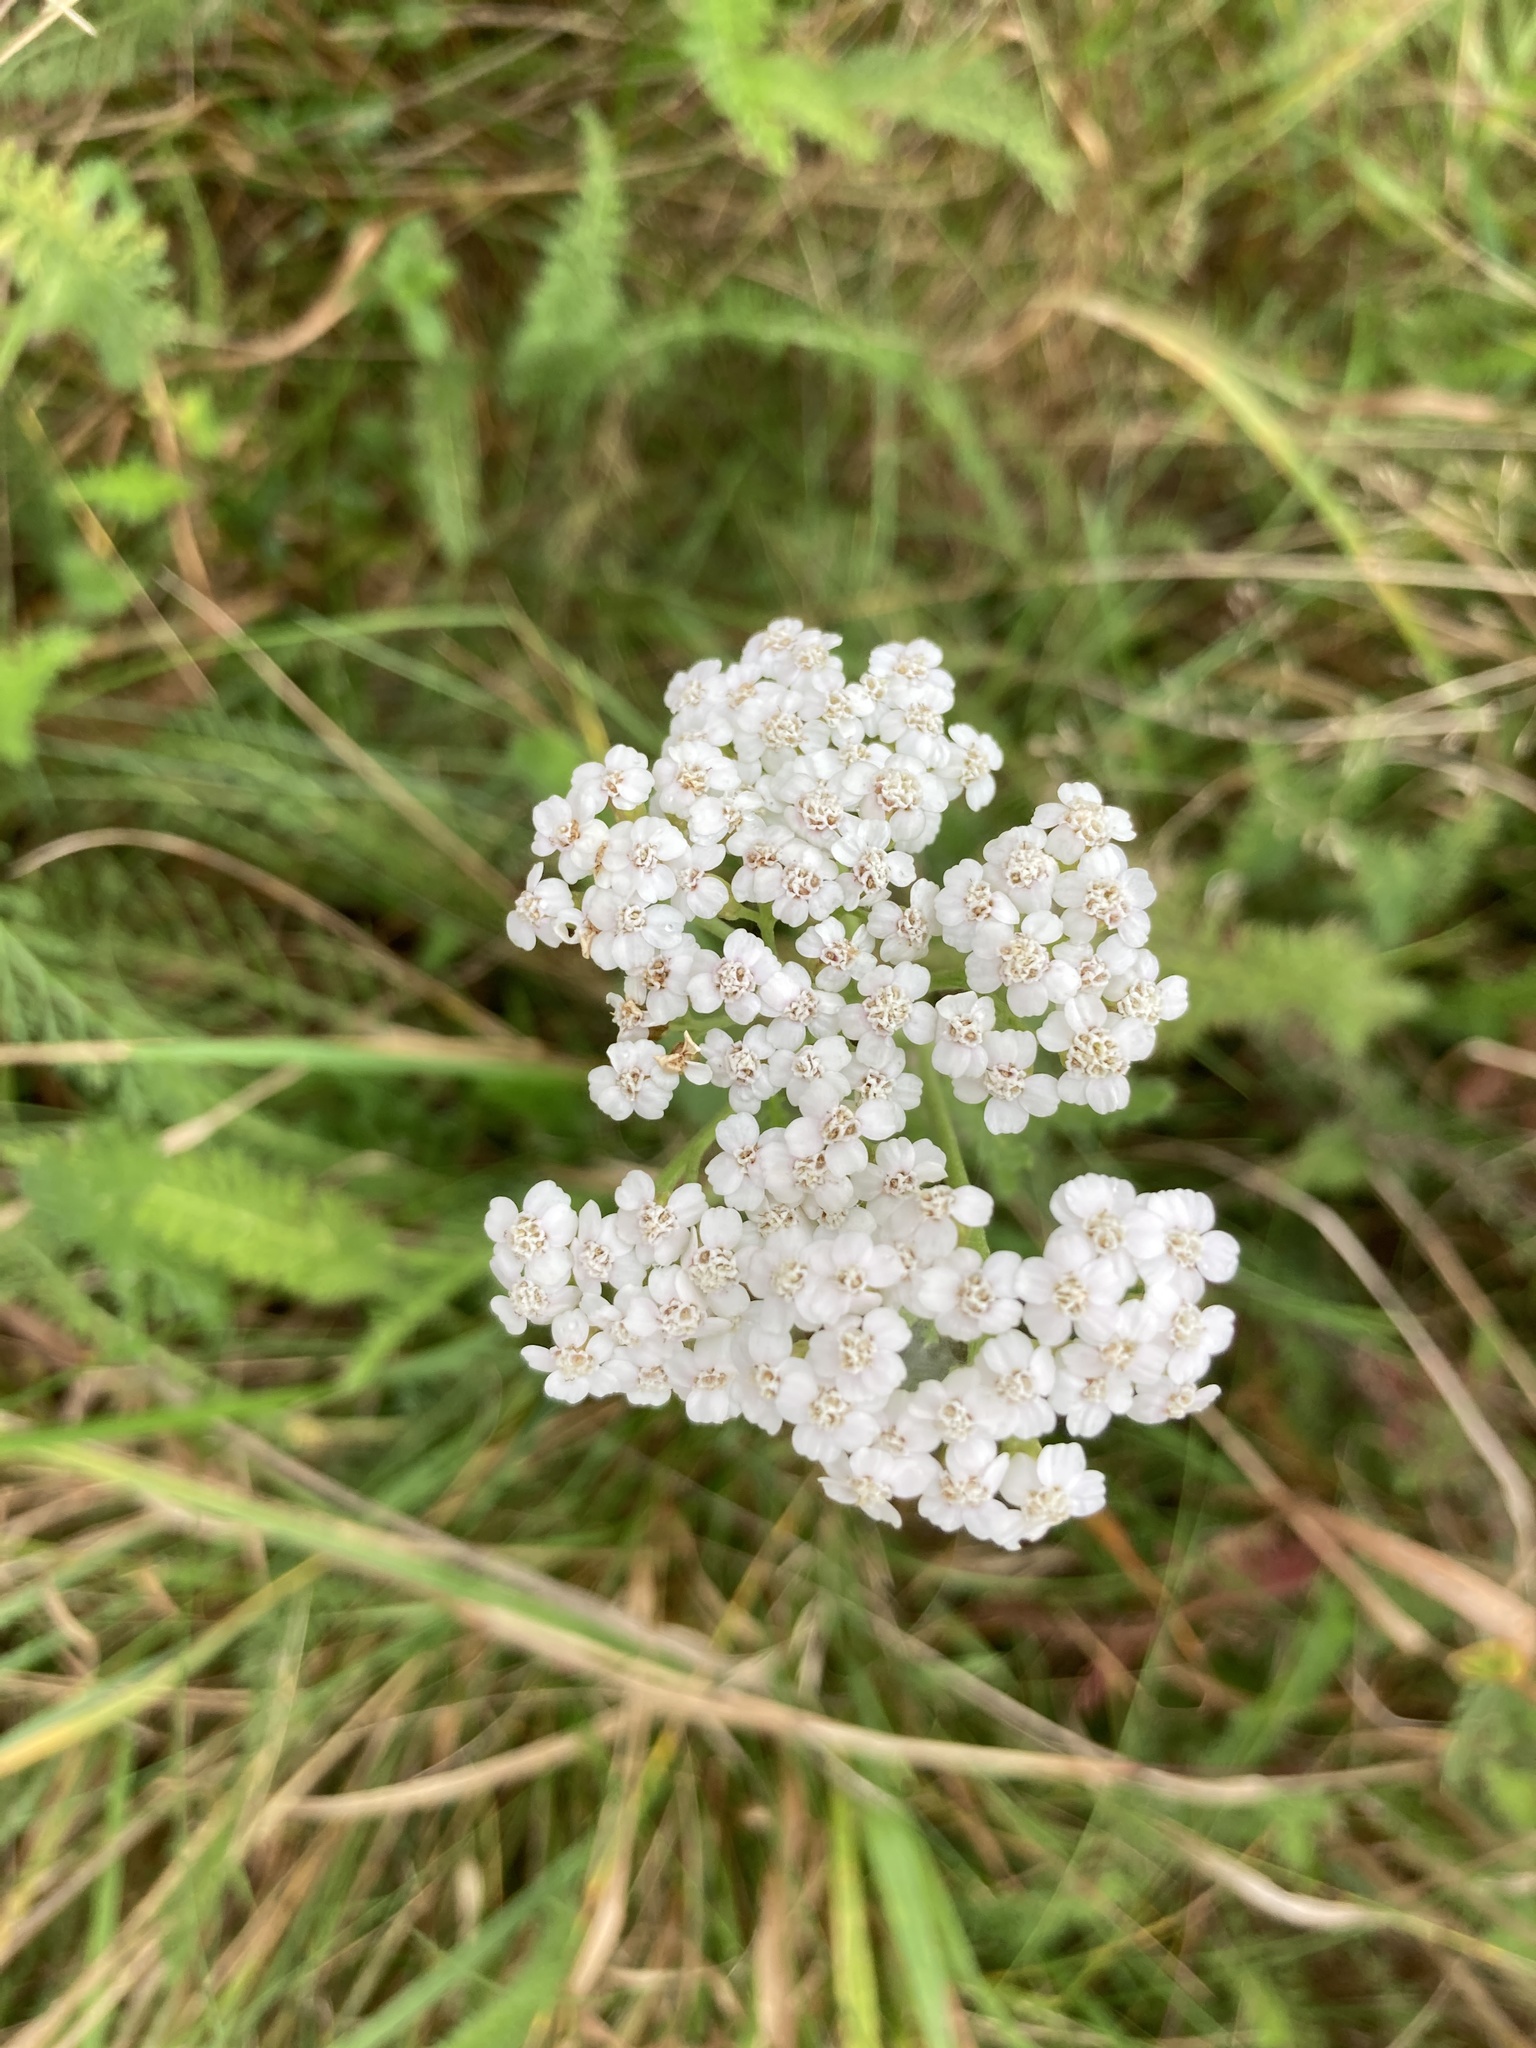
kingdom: Plantae
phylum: Tracheophyta
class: Magnoliopsida
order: Asterales
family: Asteraceae
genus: Achillea
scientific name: Achillea millefolium
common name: Yarrow
